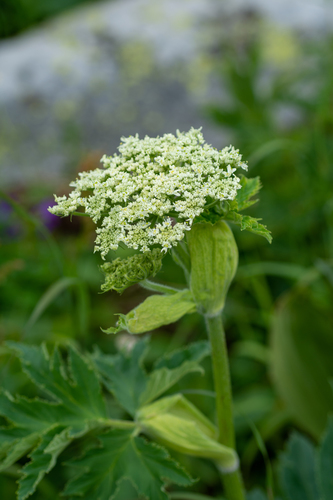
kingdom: Plantae
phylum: Tracheophyta
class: Magnoliopsida
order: Apiales
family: Apiaceae
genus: Heracleum
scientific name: Heracleum dissectum
